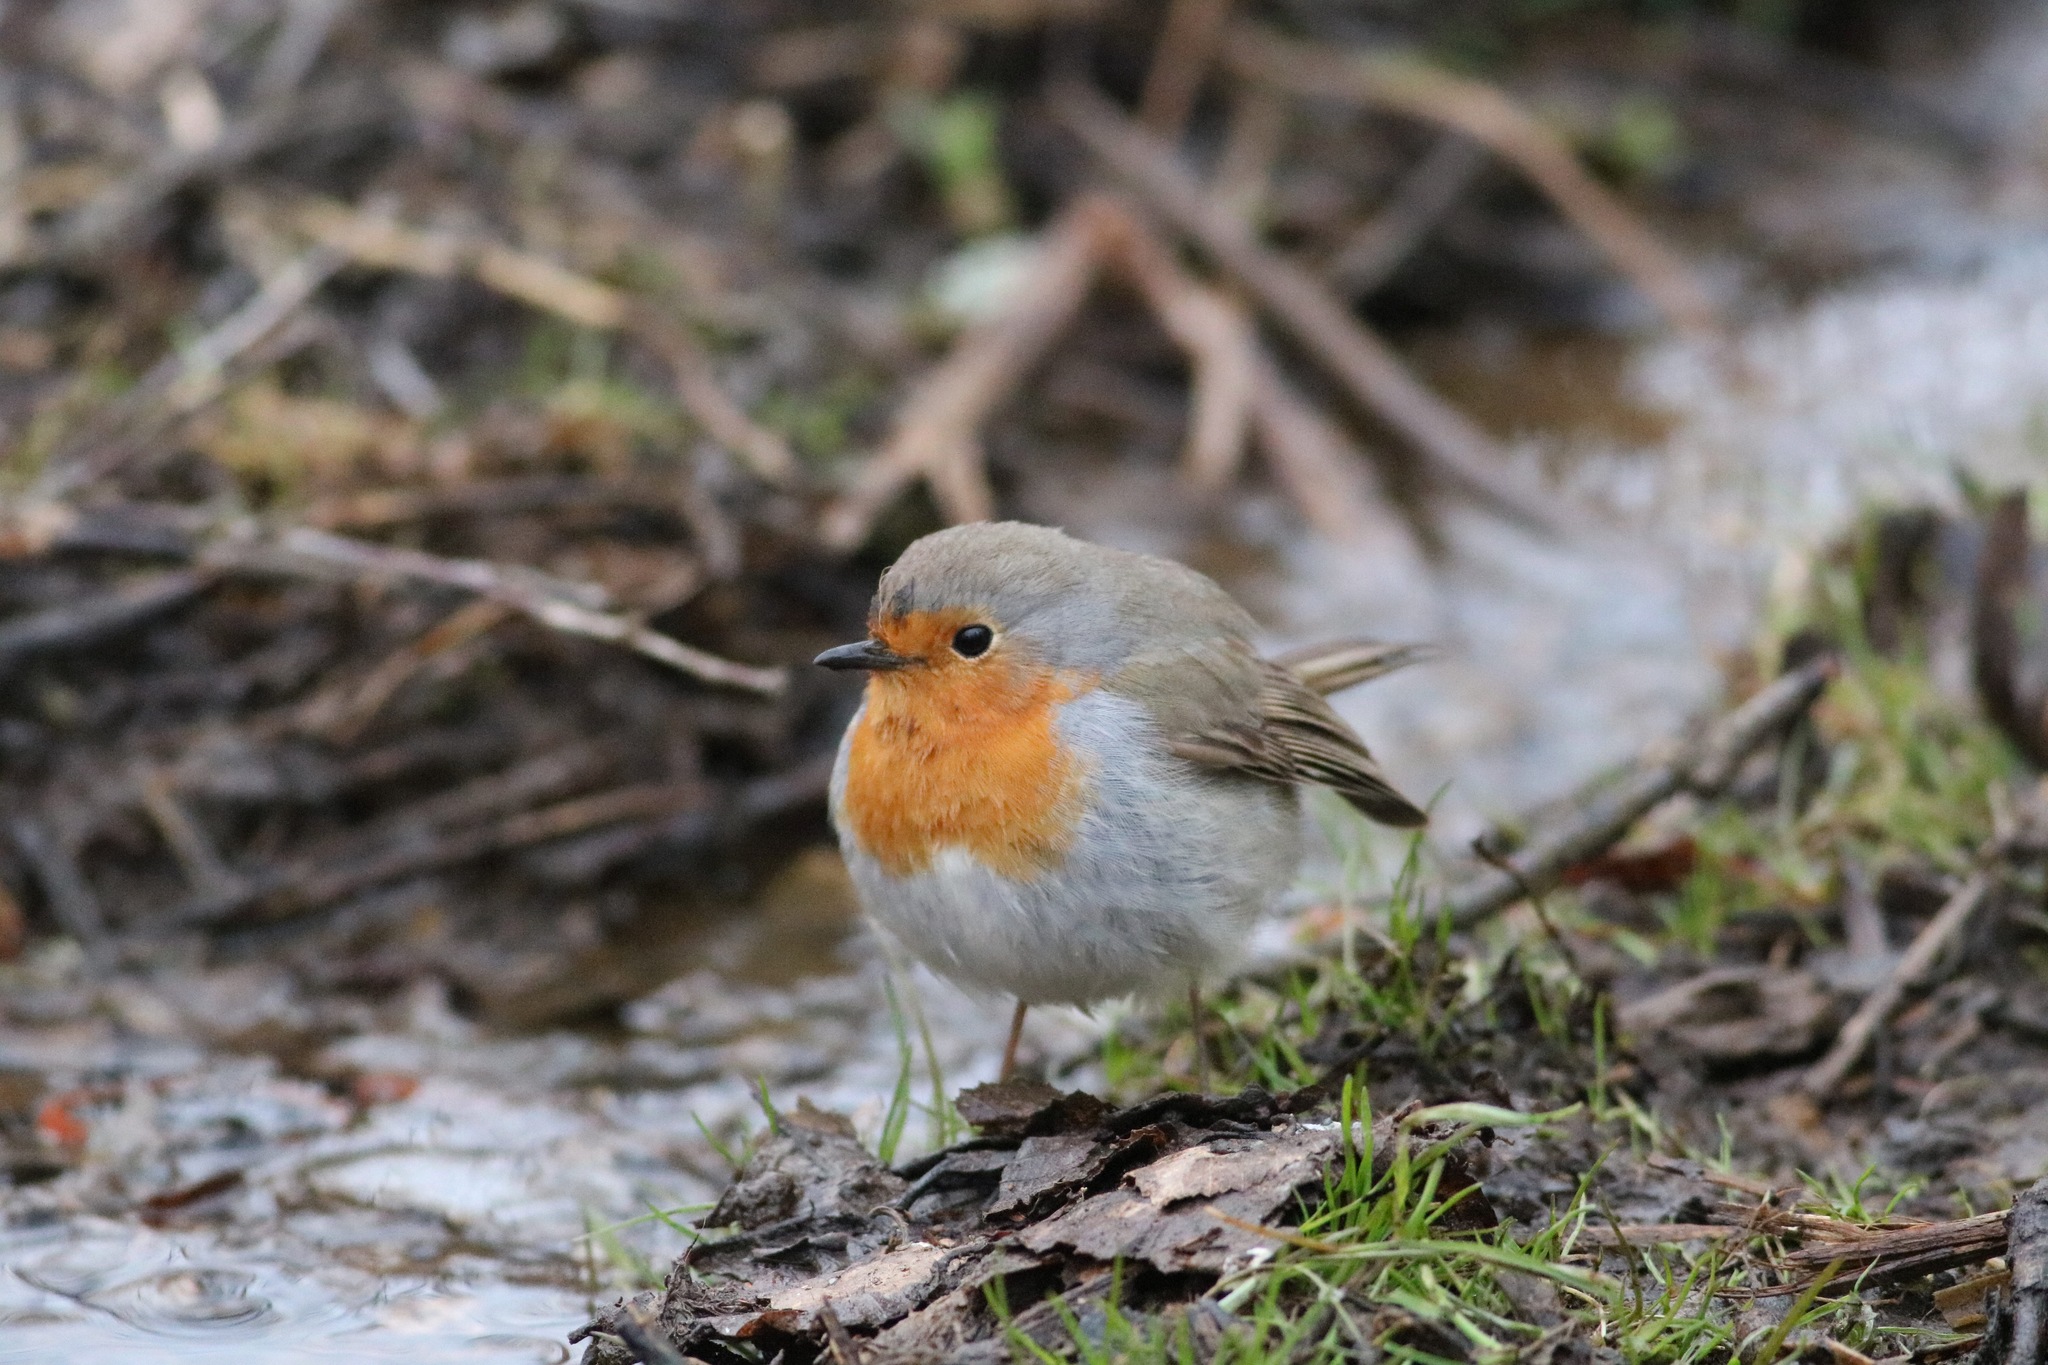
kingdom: Animalia
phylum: Chordata
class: Aves
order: Passeriformes
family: Muscicapidae
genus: Erithacus
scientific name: Erithacus rubecula
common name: European robin
